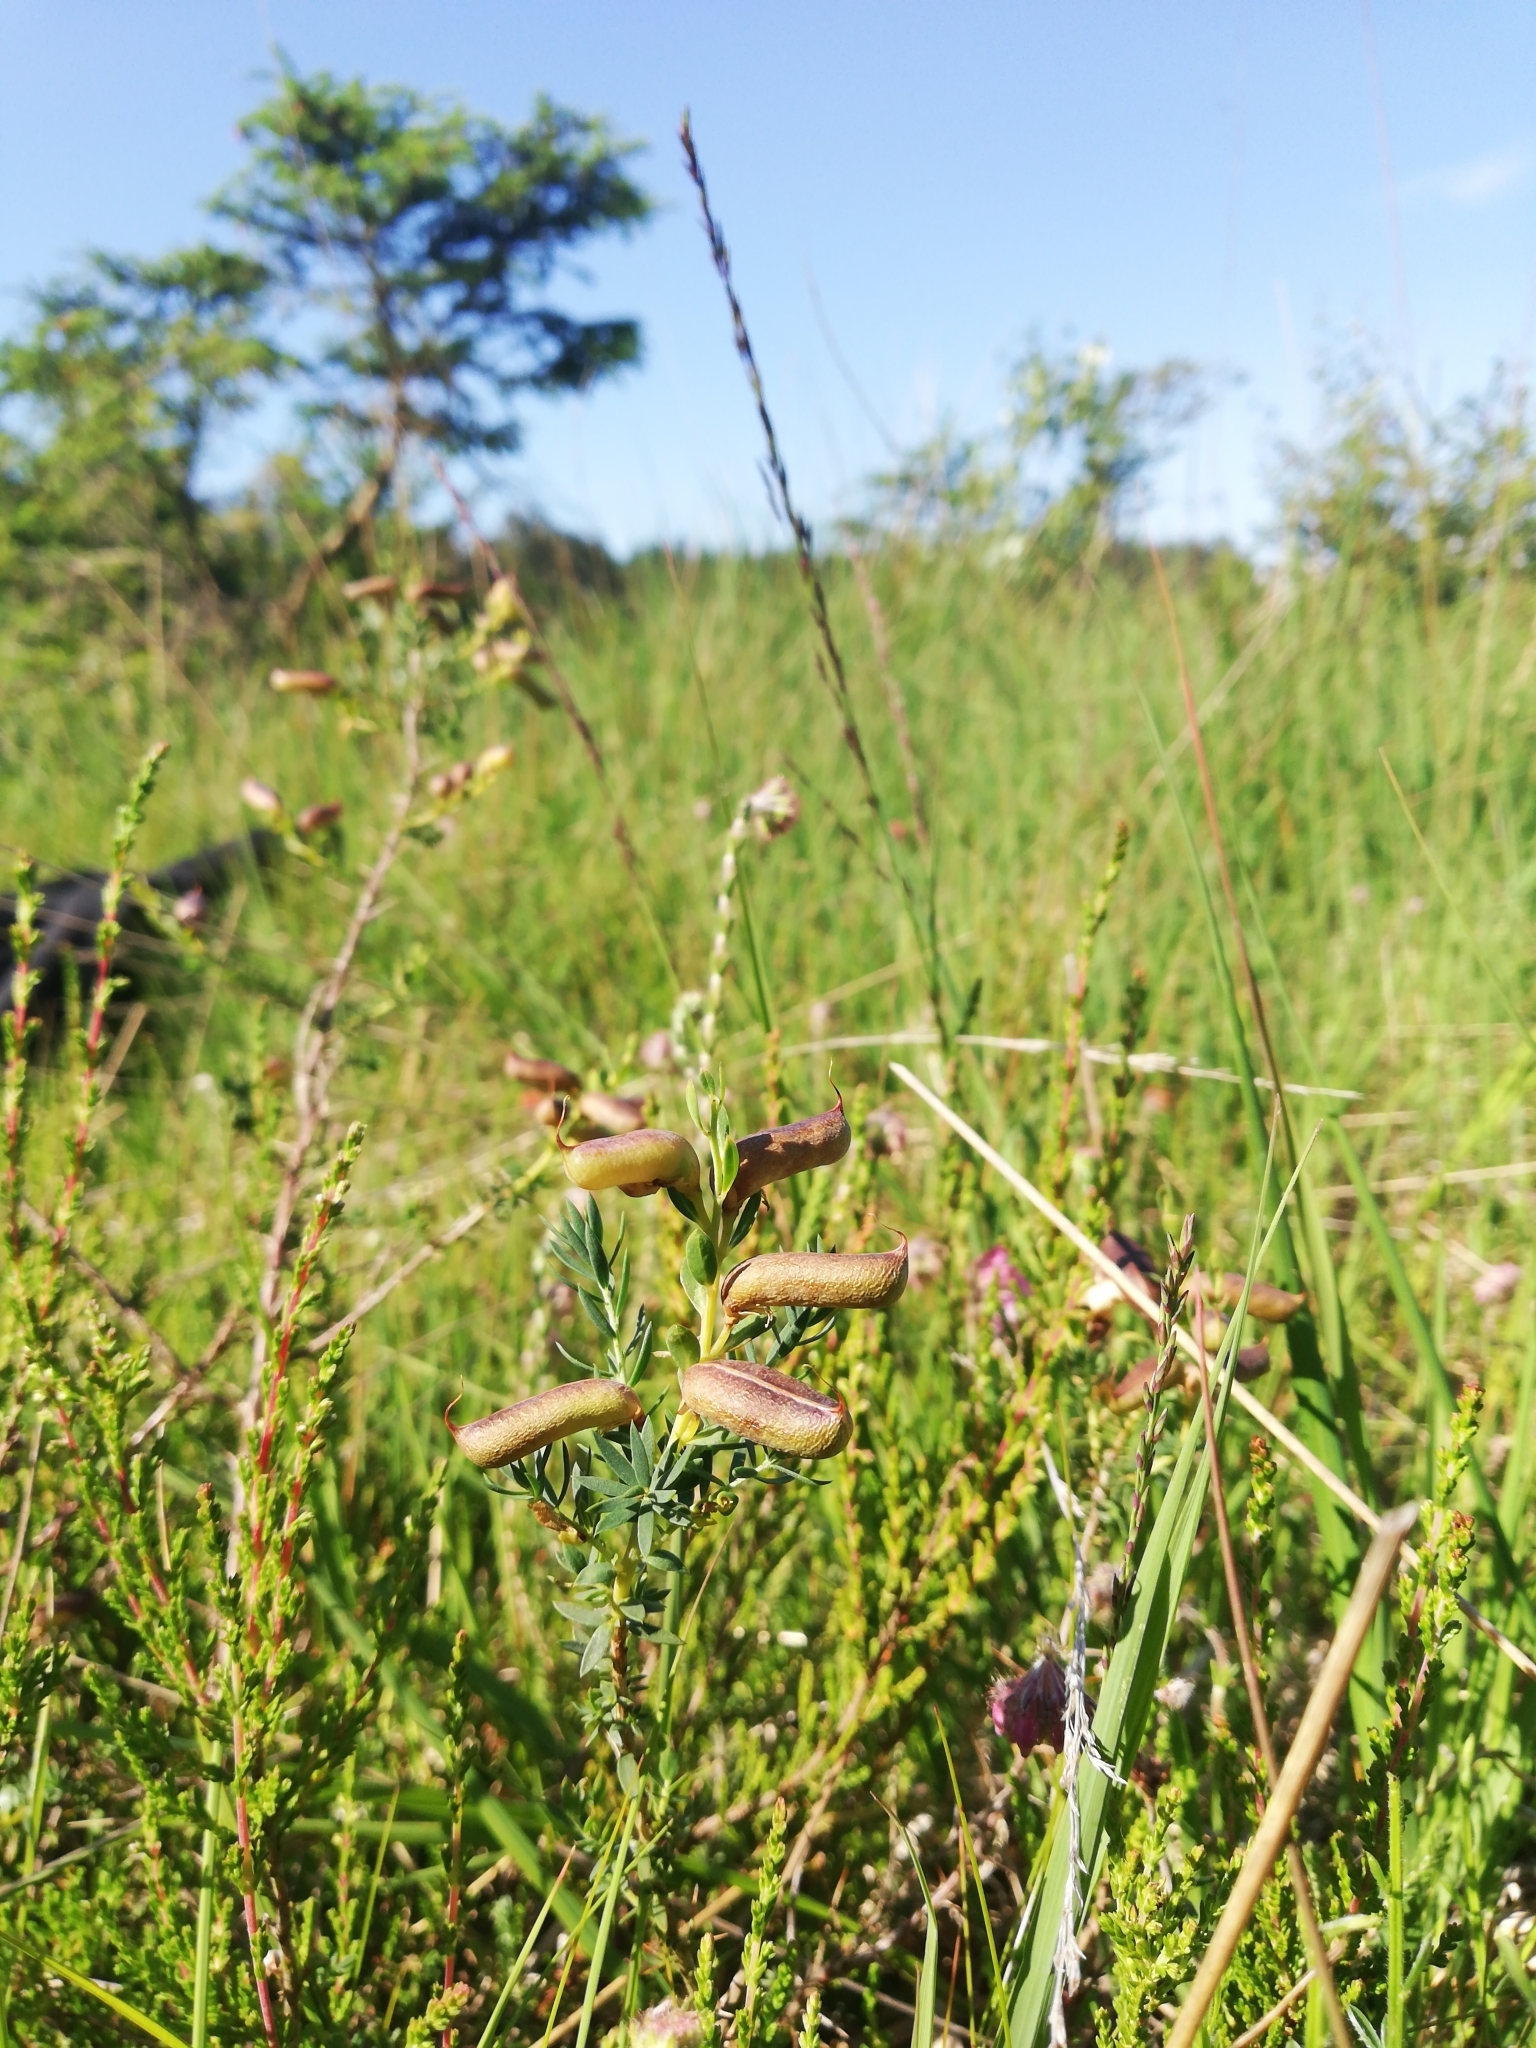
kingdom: Plantae
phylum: Tracheophyta
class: Magnoliopsida
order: Fabales
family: Fabaceae
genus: Genista
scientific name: Genista anglica
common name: Petty whin
